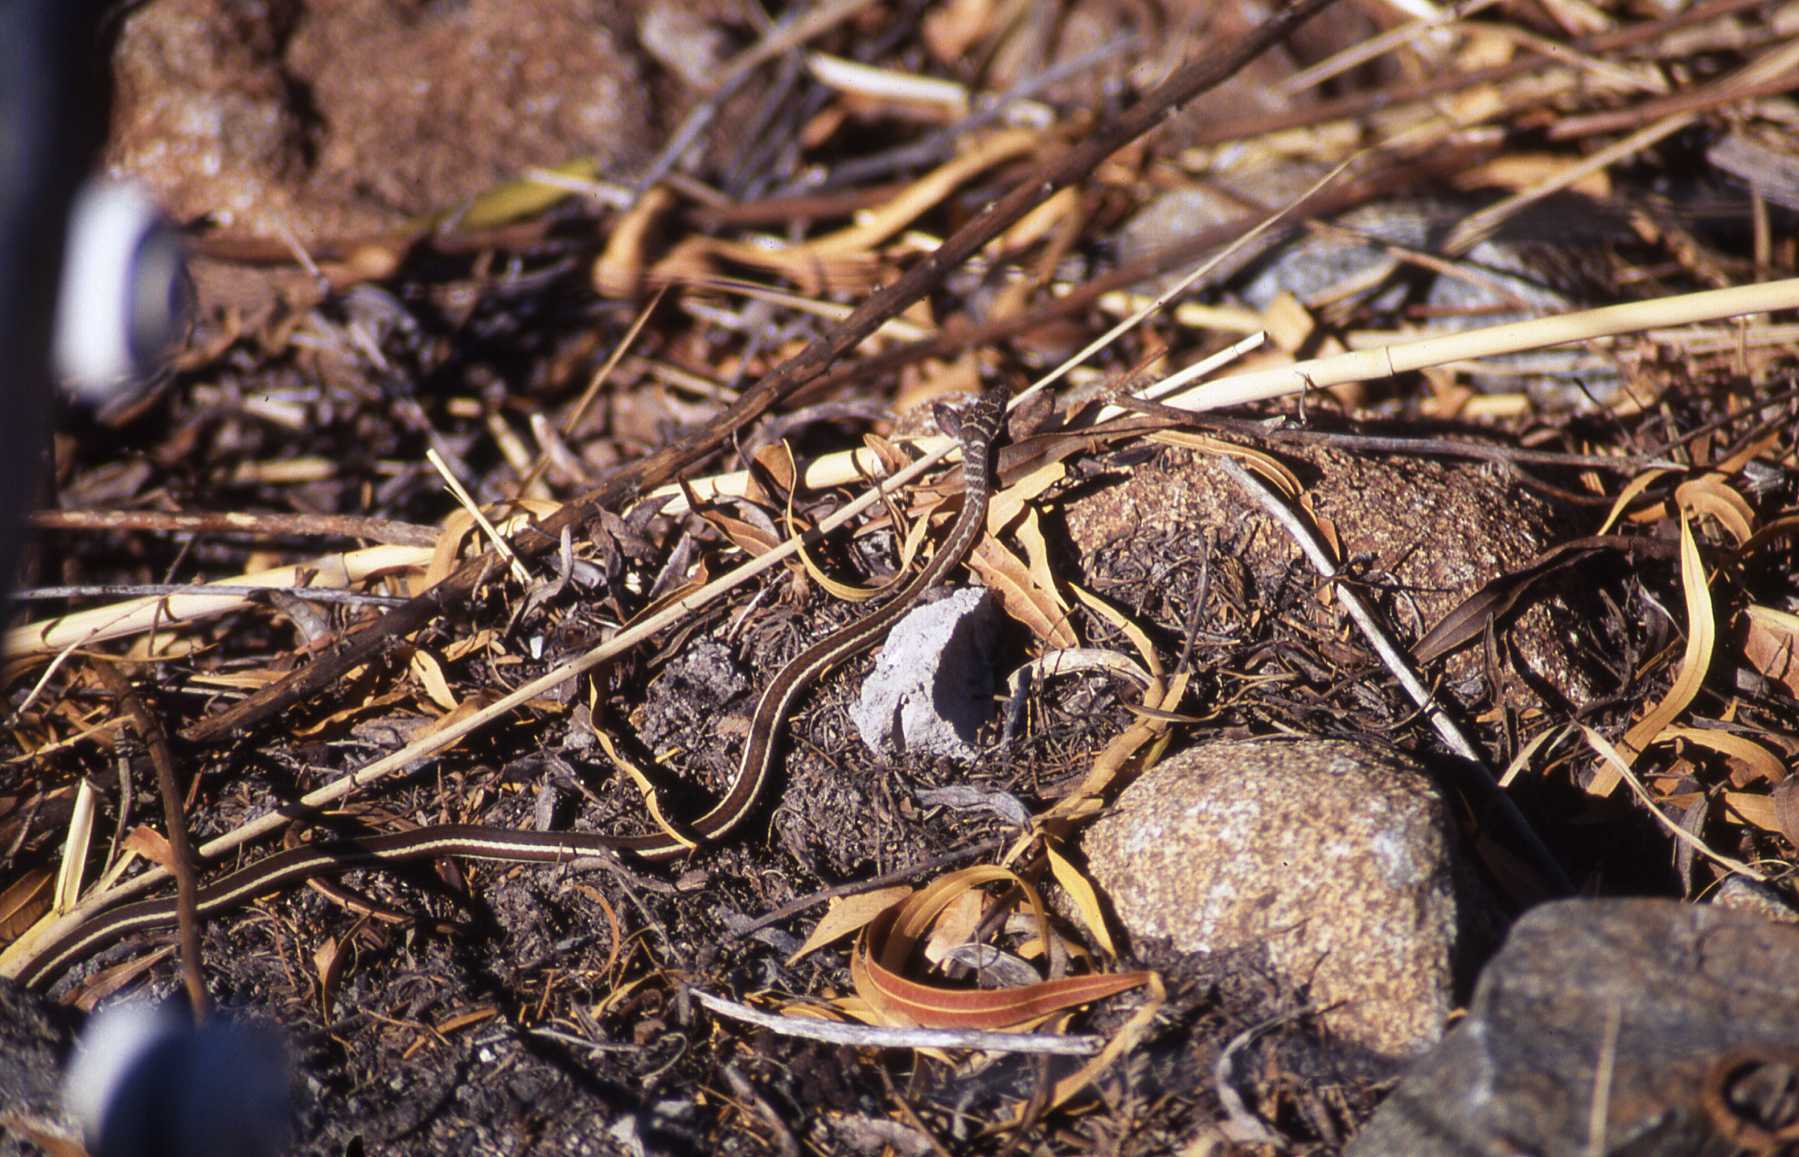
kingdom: Animalia
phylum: Chordata
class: Squamata
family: Psammophiidae
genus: Psammophis
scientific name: Psammophis subtaeniatus
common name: Stripe-bellied sand snake
